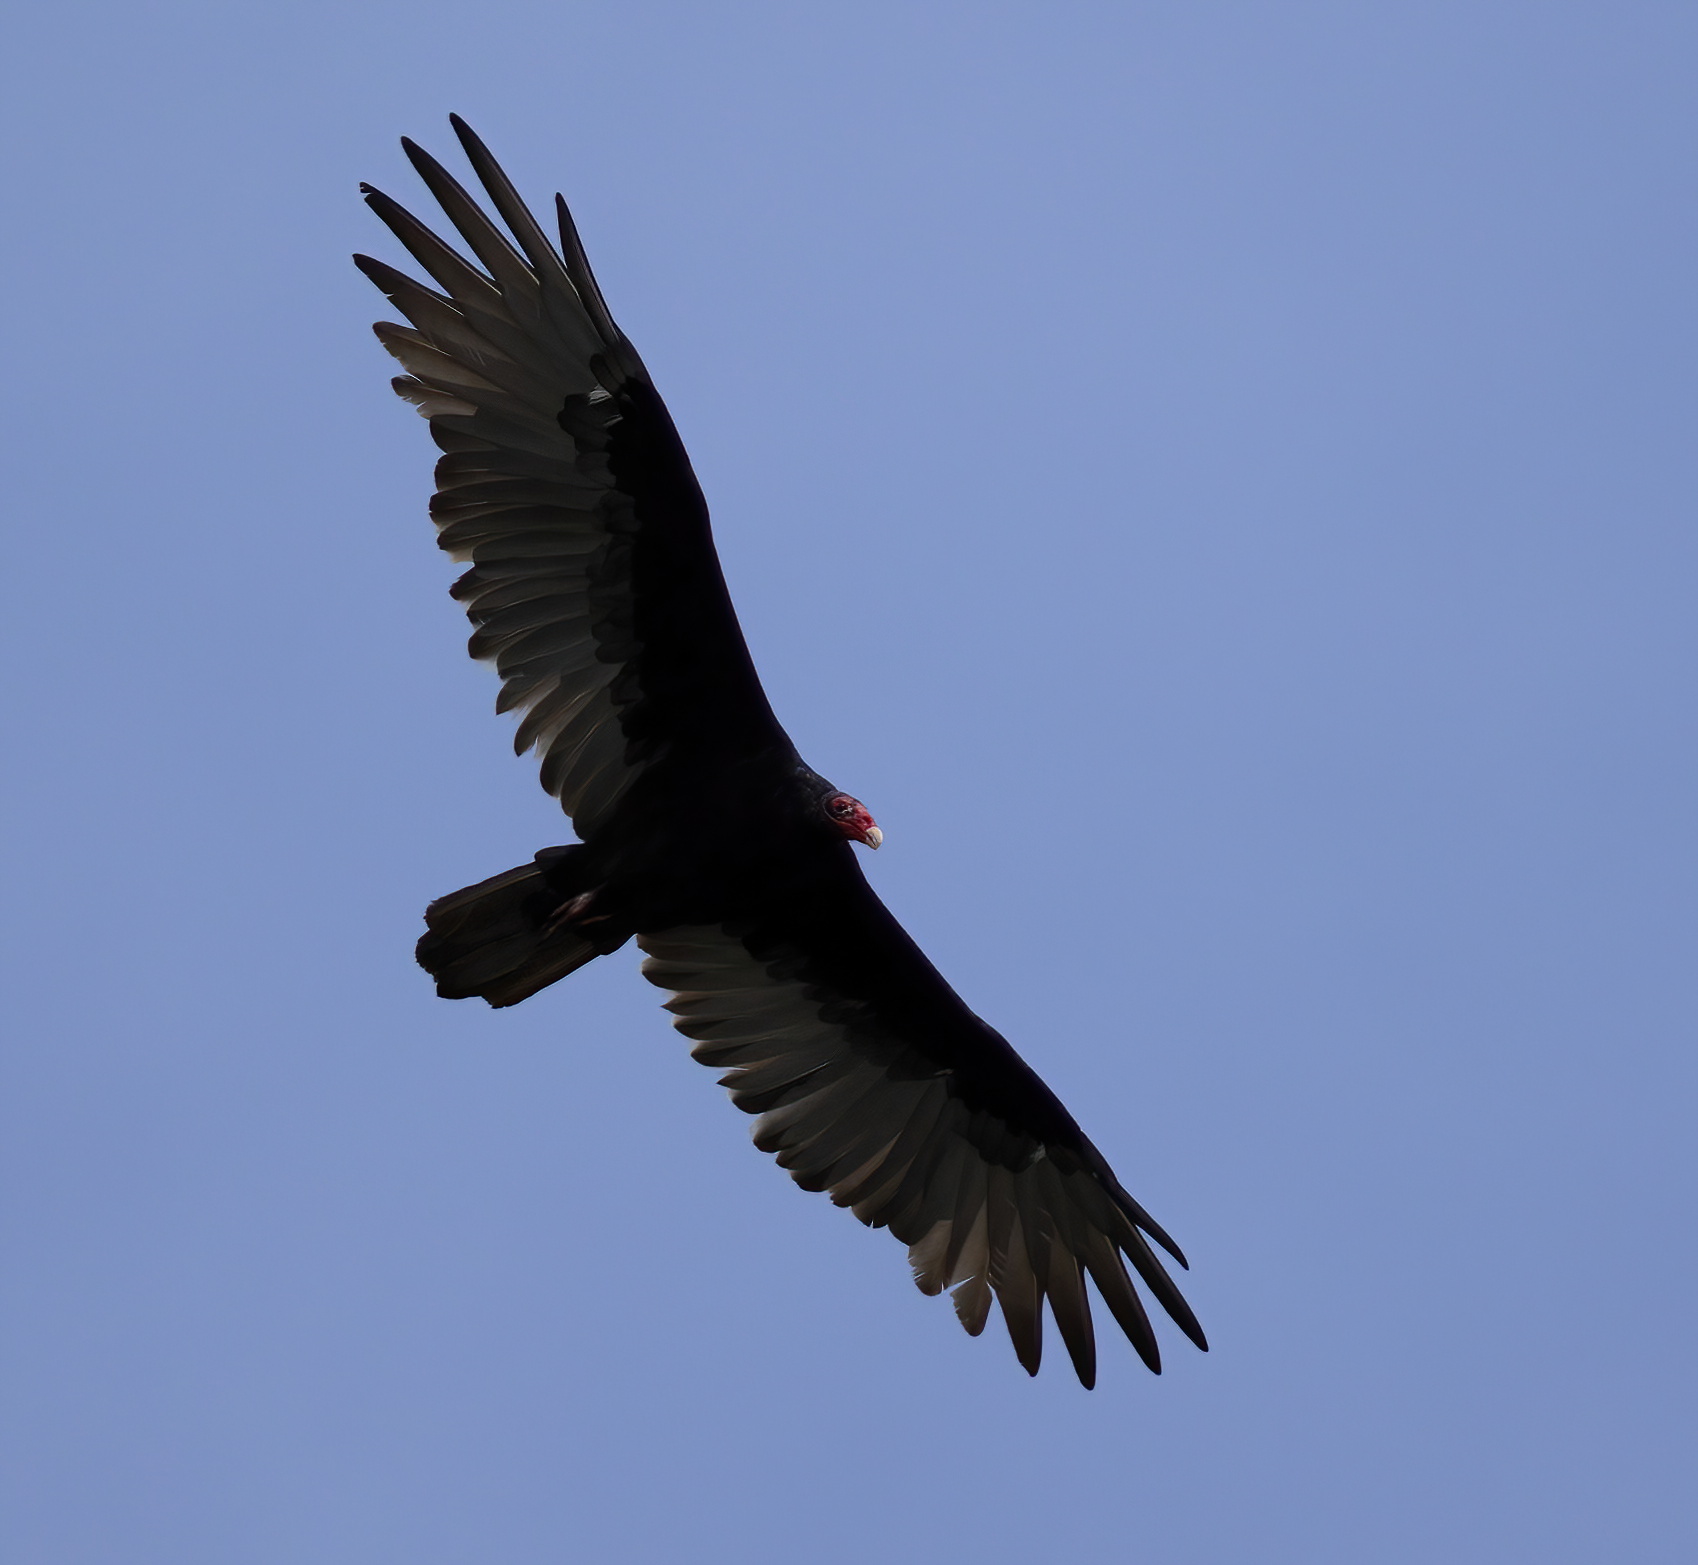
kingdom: Animalia
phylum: Chordata
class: Aves
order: Accipitriformes
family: Cathartidae
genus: Cathartes
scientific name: Cathartes aura
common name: Turkey vulture
